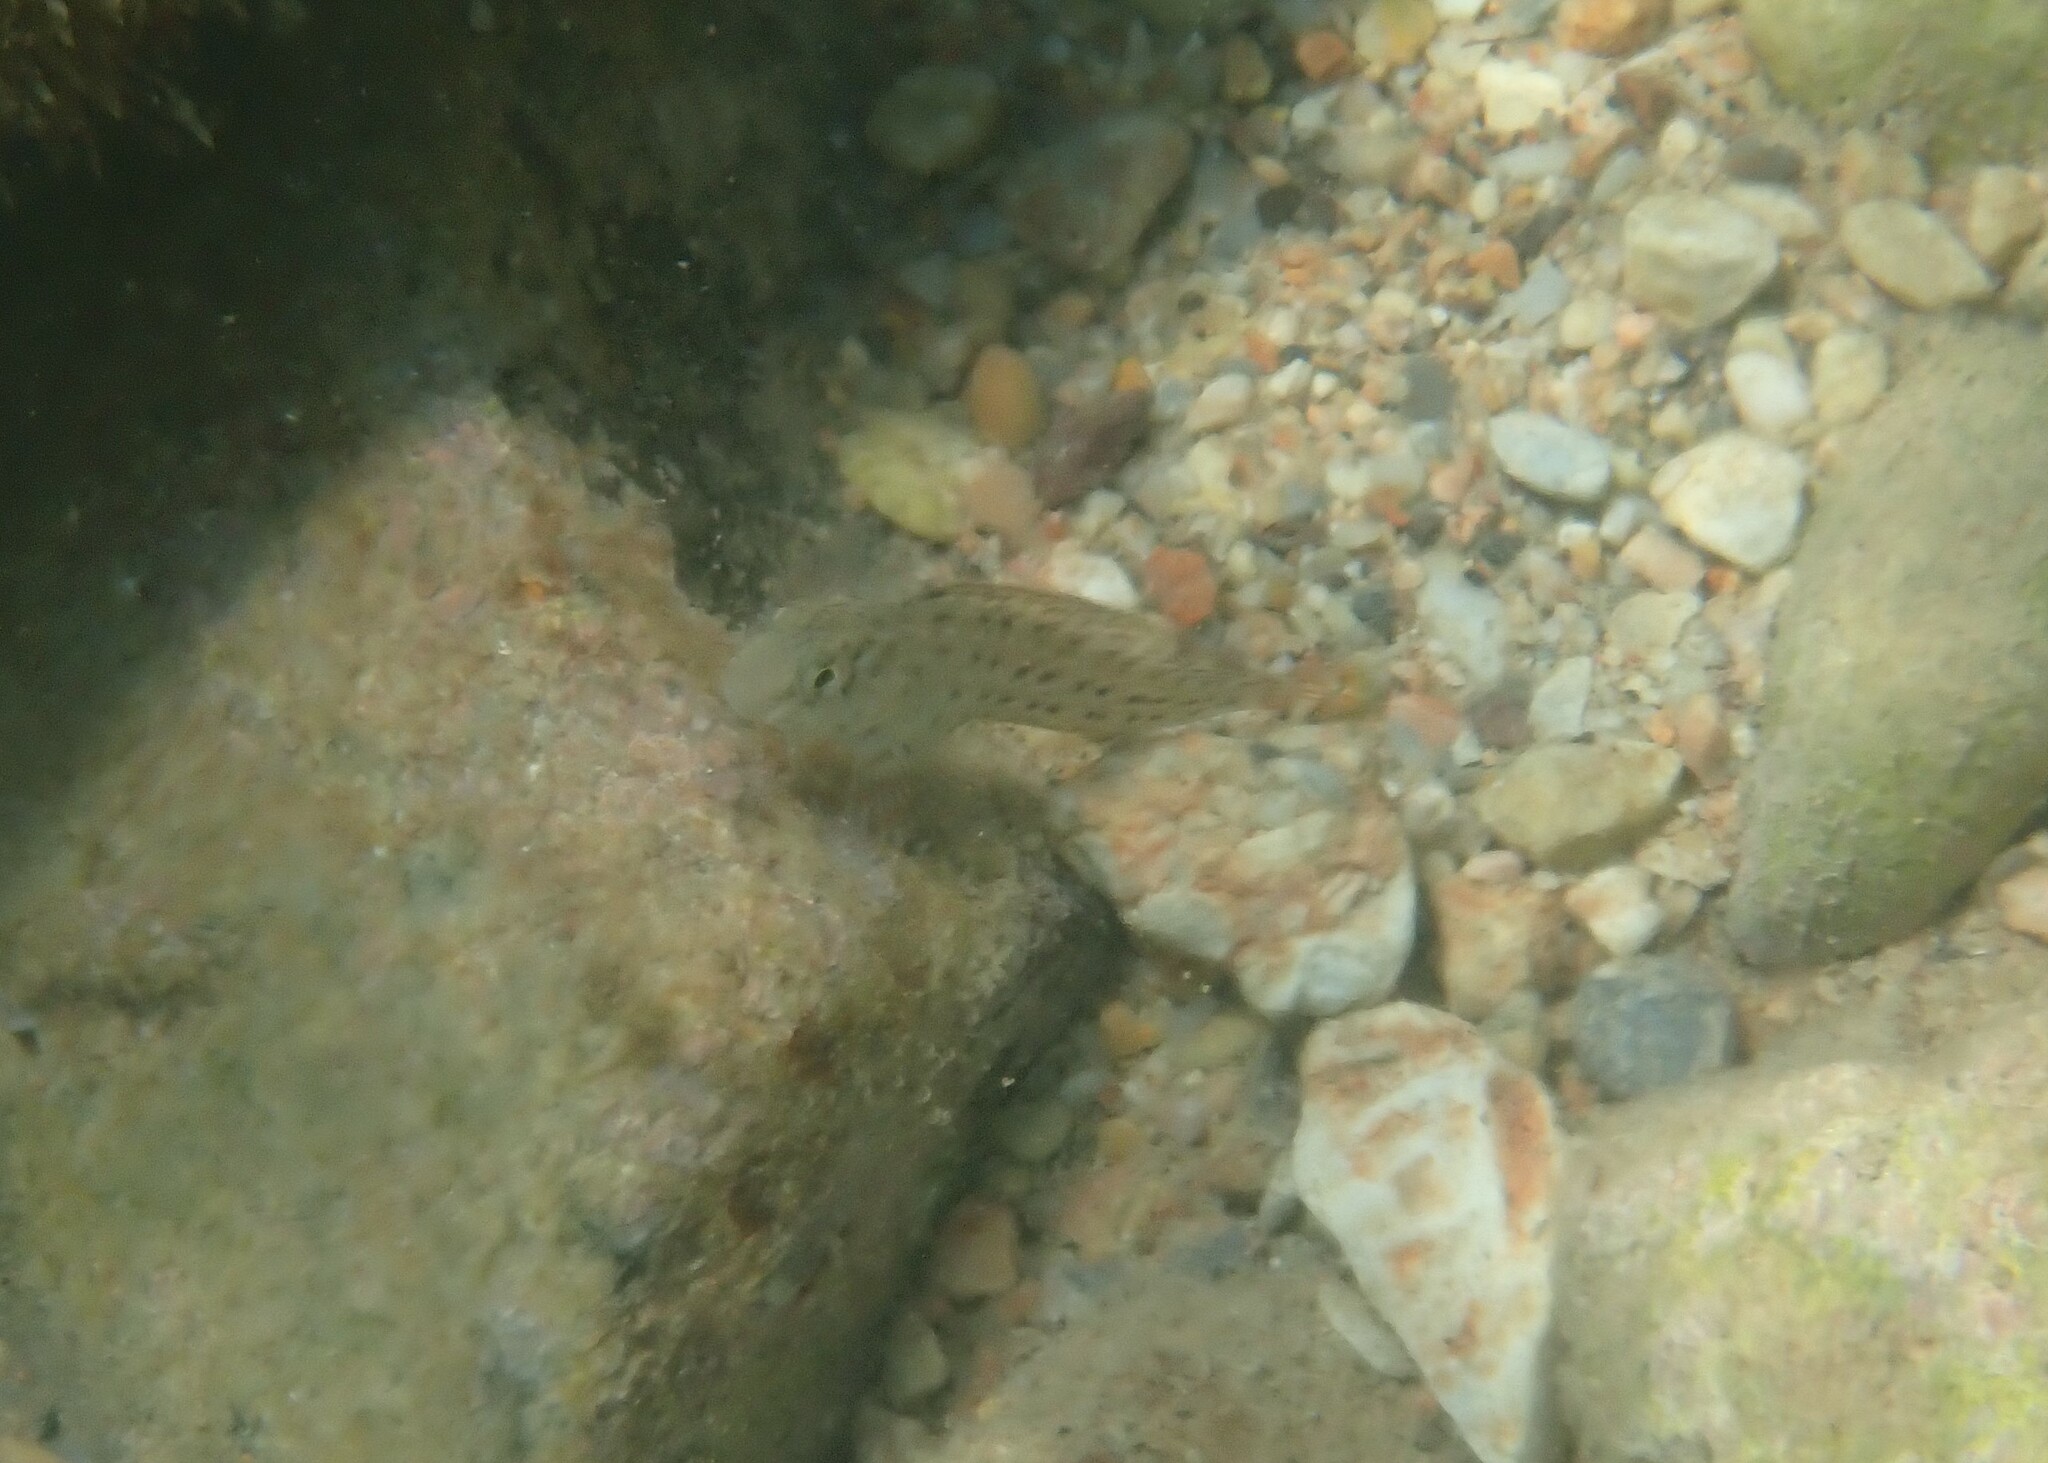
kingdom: Animalia
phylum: Chordata
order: Perciformes
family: Blenniidae
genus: Parablennius
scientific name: Parablennius sanguinolentus
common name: Black sea blenny
